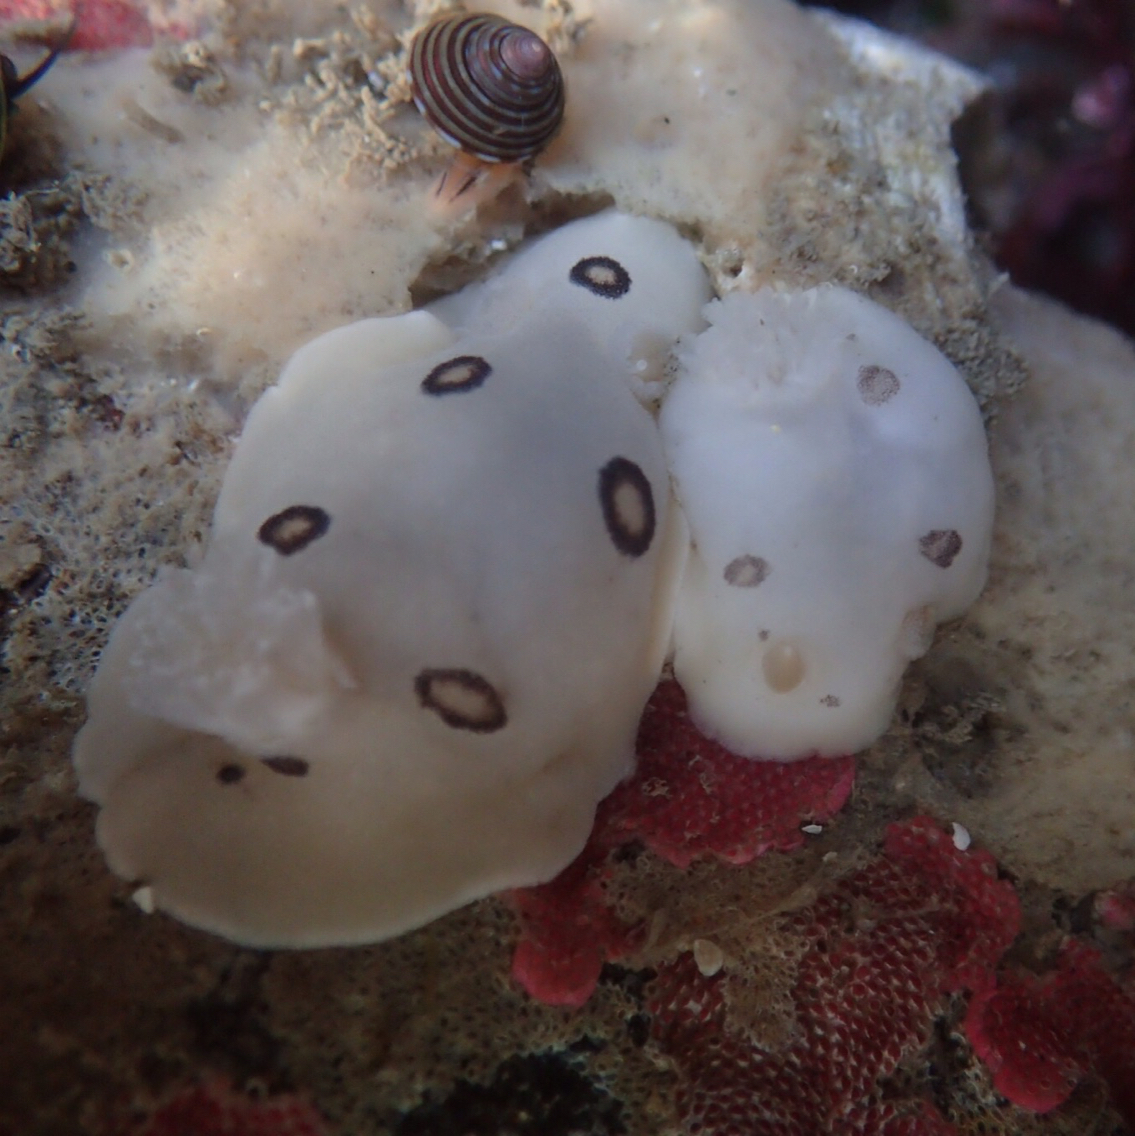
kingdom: Animalia
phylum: Mollusca
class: Gastropoda
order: Nudibranchia
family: Discodorididae
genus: Diaulula
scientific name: Diaulula sandiegensis
